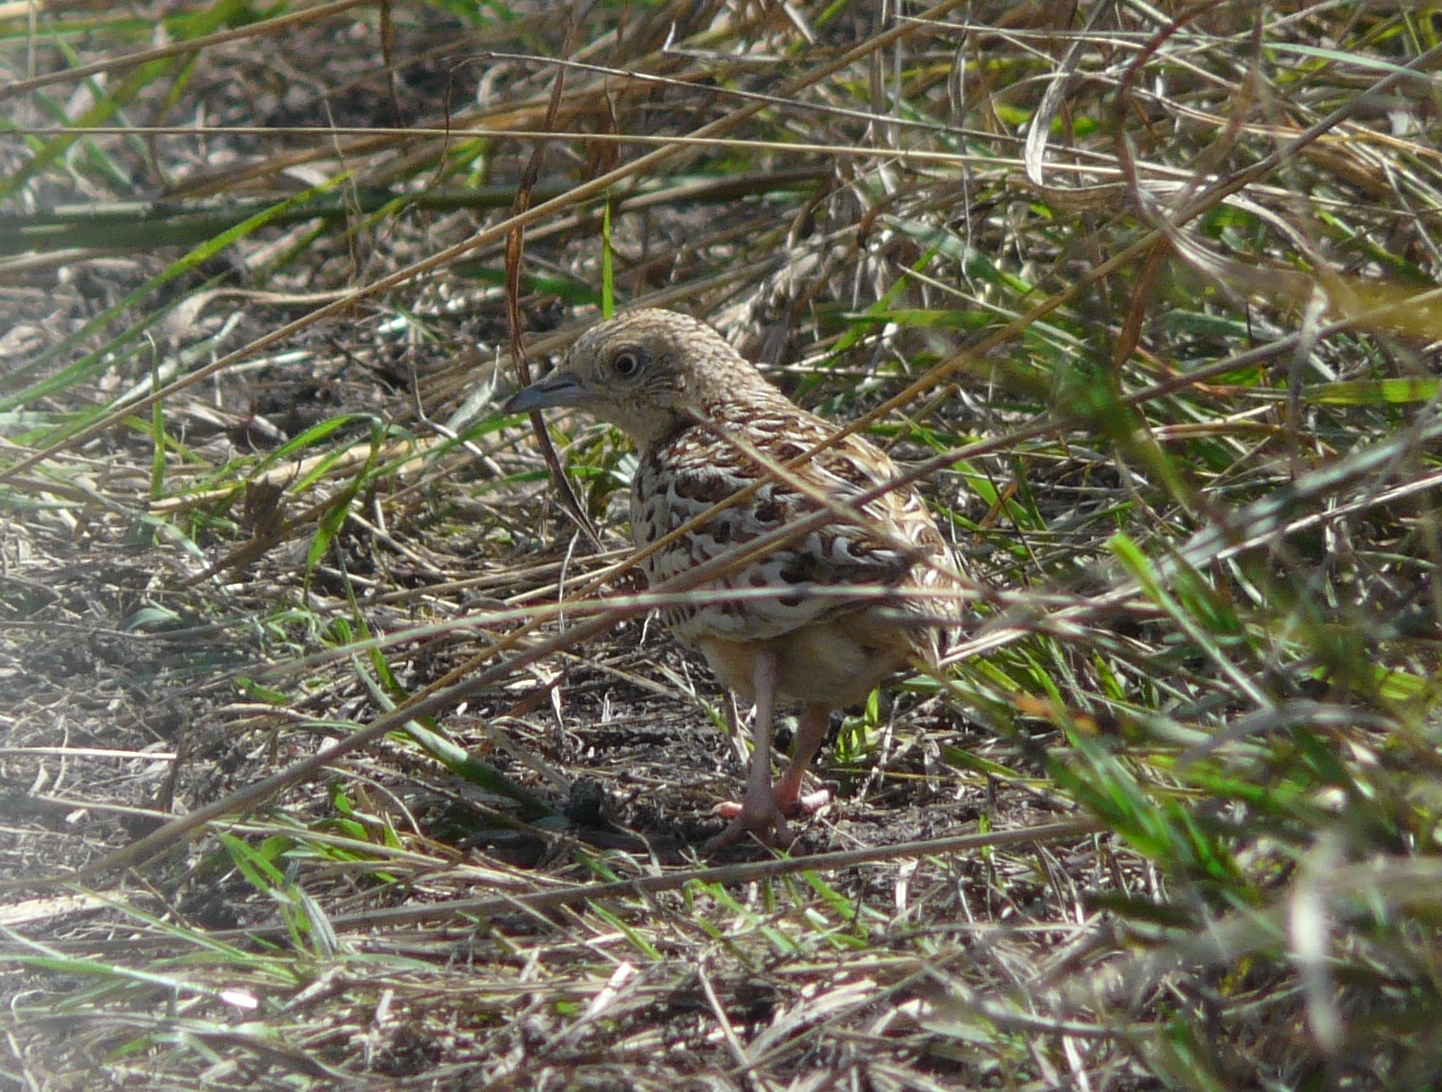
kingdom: Animalia
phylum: Chordata
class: Aves
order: Charadriiformes
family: Turnicidae
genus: Turnix
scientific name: Turnix sylvaticus
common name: Common buttonquail
